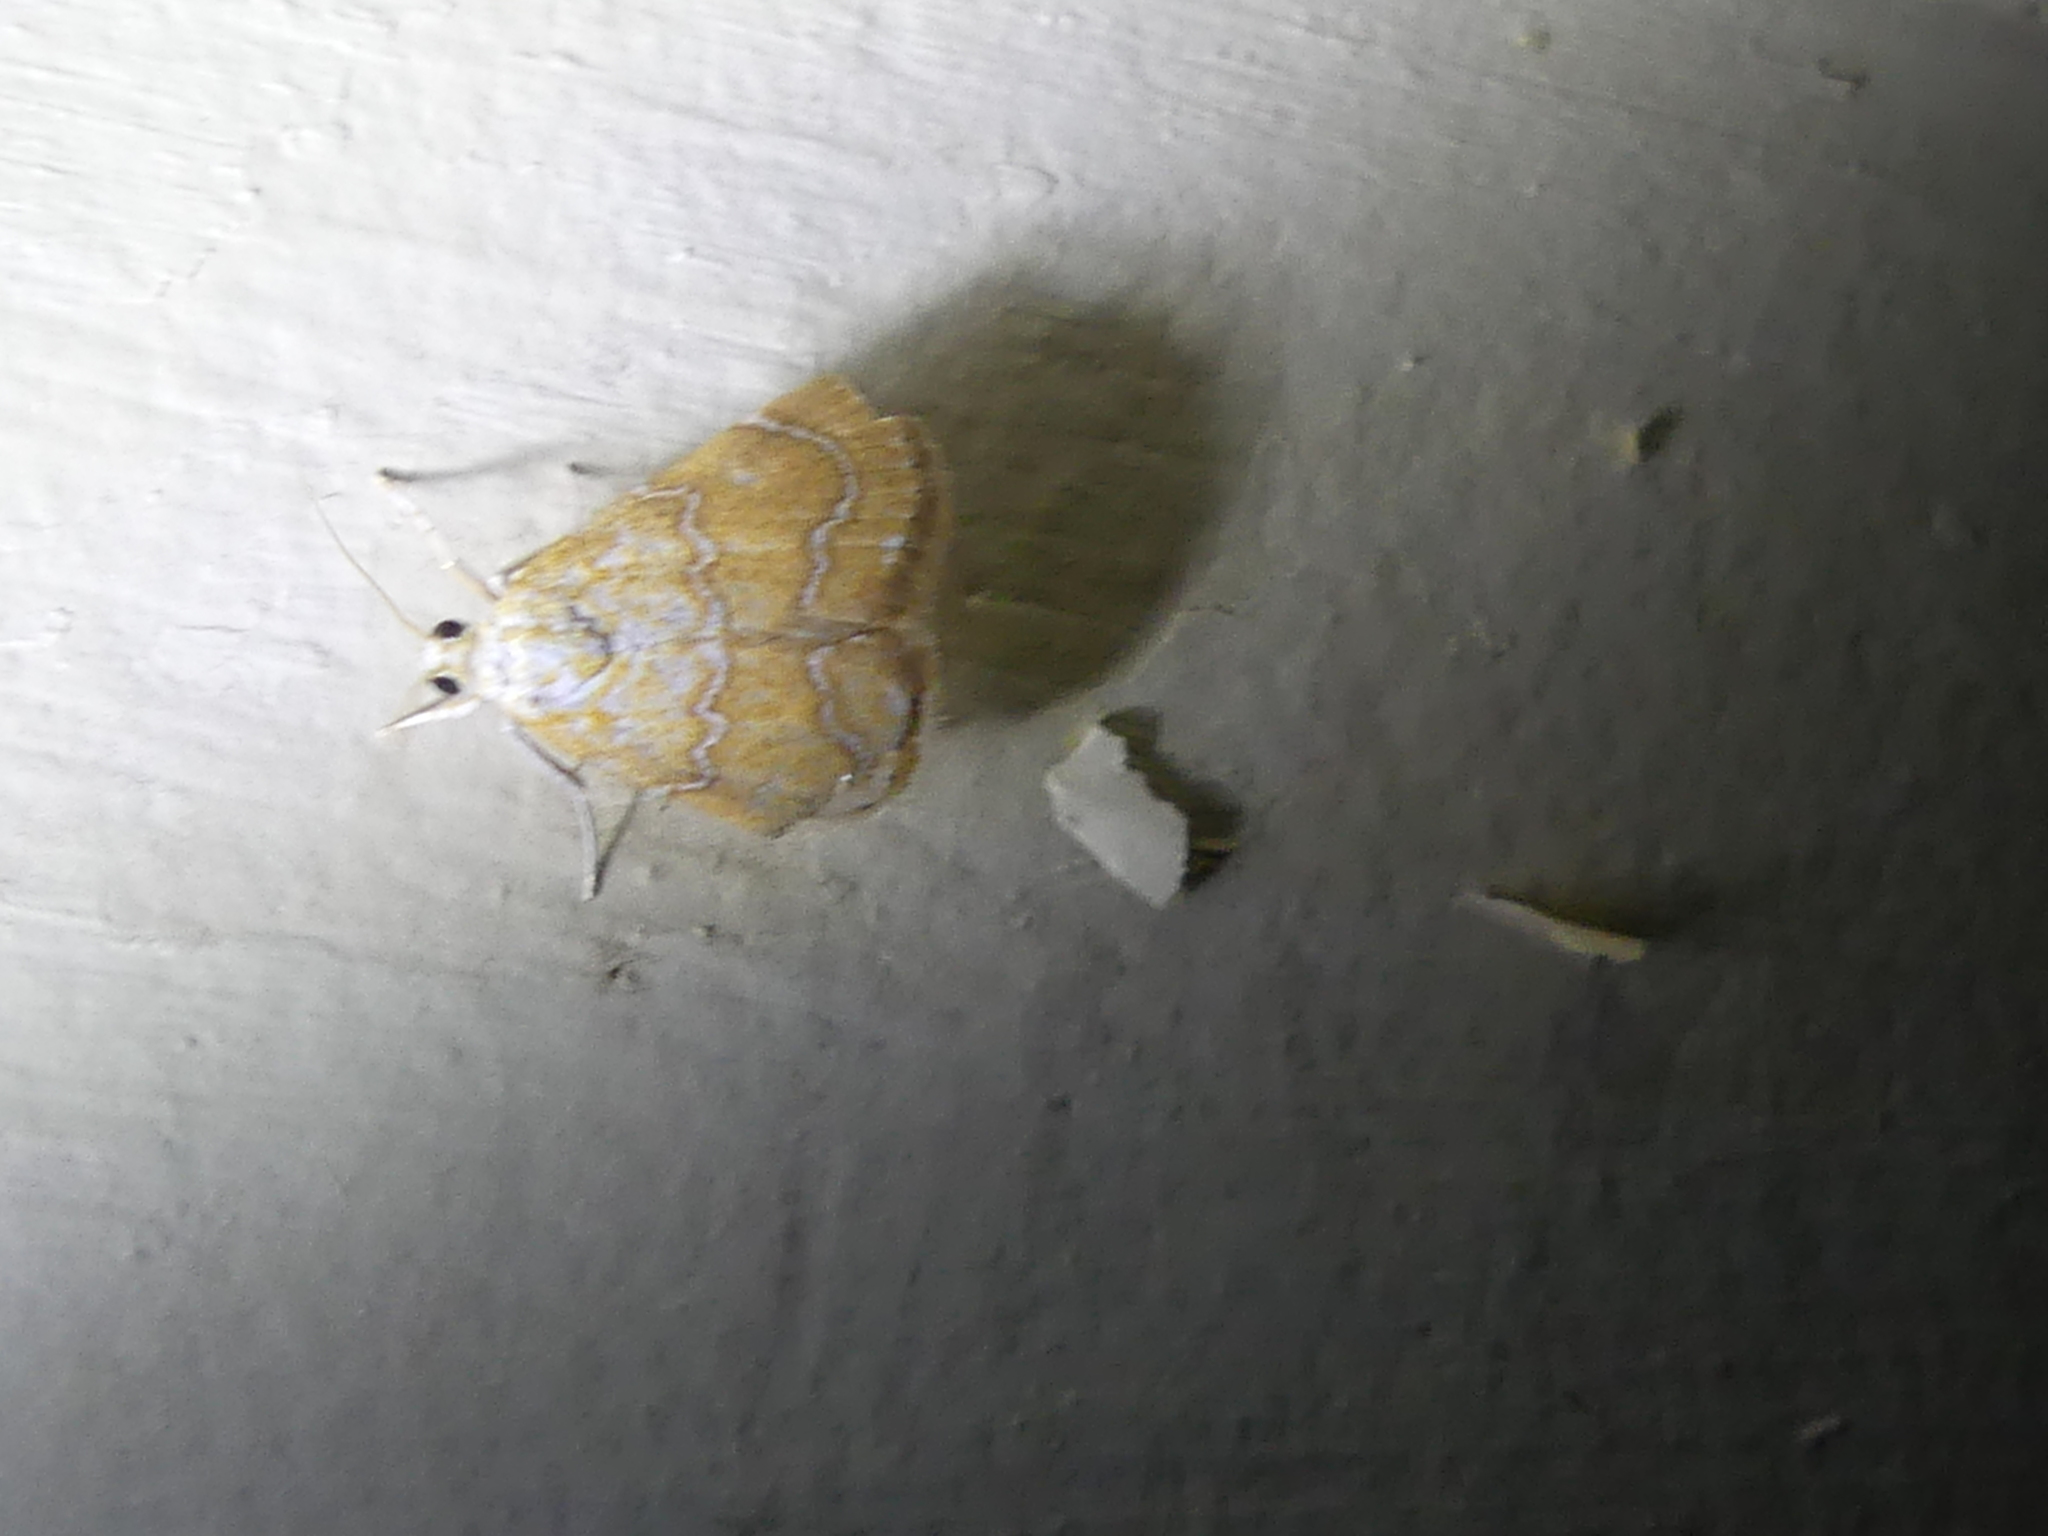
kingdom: Animalia
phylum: Arthropoda
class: Insecta
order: Lepidoptera
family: Crambidae
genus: Glaphyria
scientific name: Glaphyria sesquistrialis
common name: White-roped glaphyria
